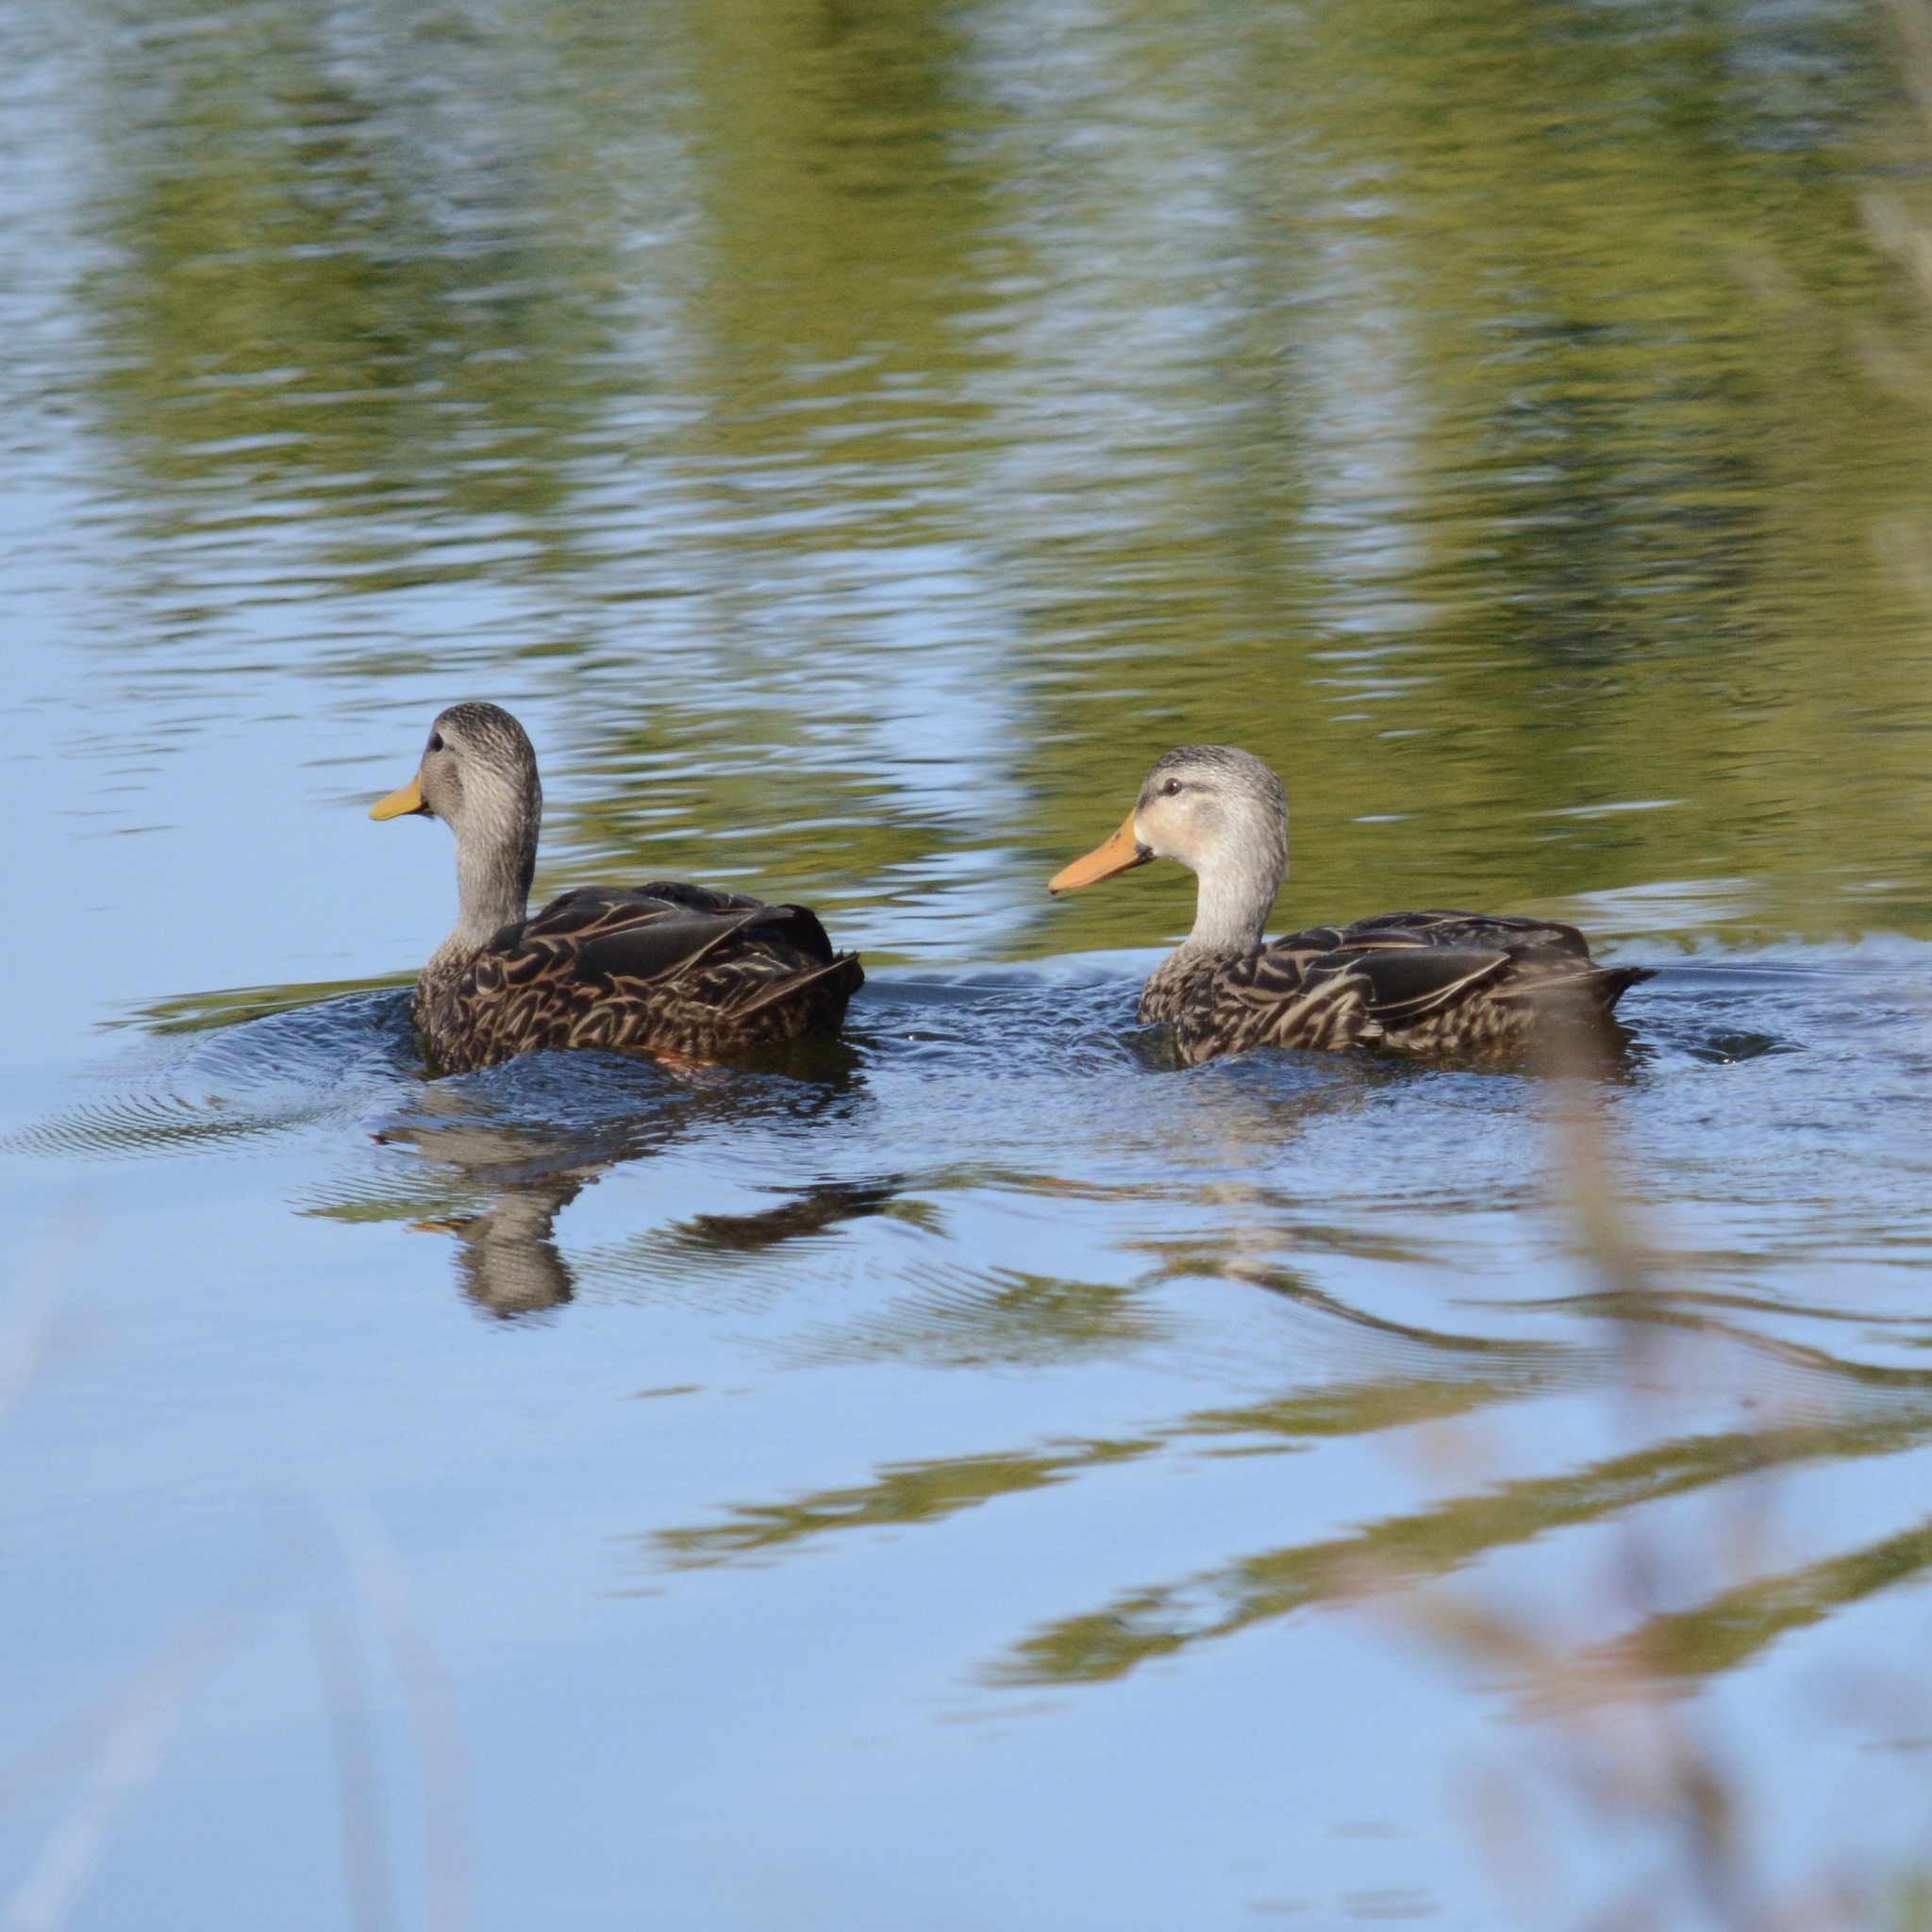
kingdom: Animalia
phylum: Chordata
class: Aves
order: Anseriformes
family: Anatidae
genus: Anas
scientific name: Anas fulvigula
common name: Mottled duck
